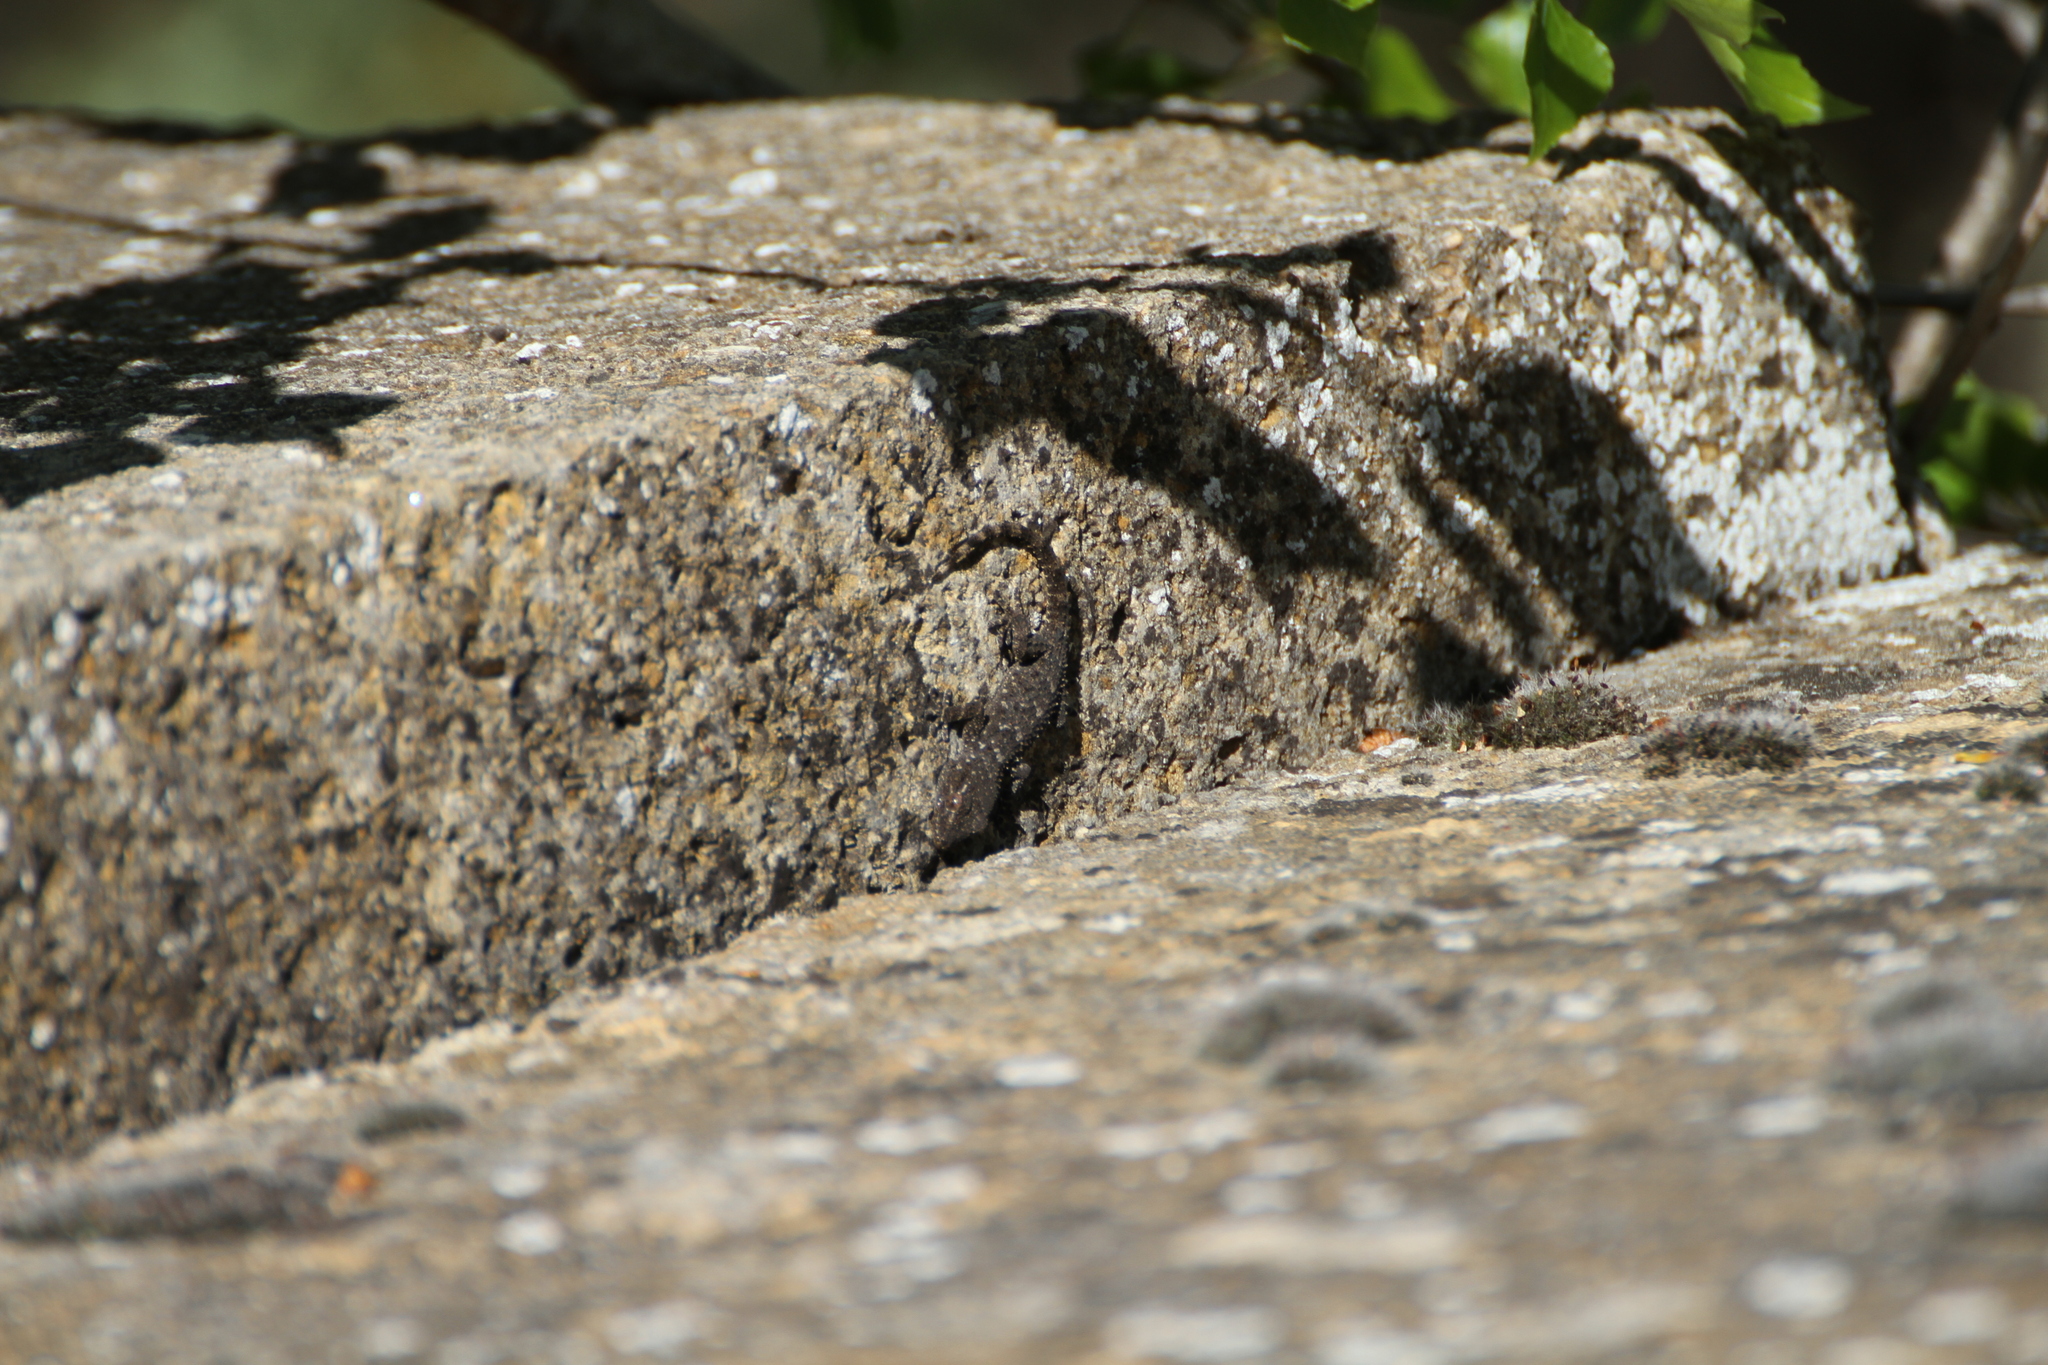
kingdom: Animalia
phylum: Chordata
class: Squamata
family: Phyllodactylidae
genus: Tarentola
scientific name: Tarentola mauritanica
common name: Moorish gecko
